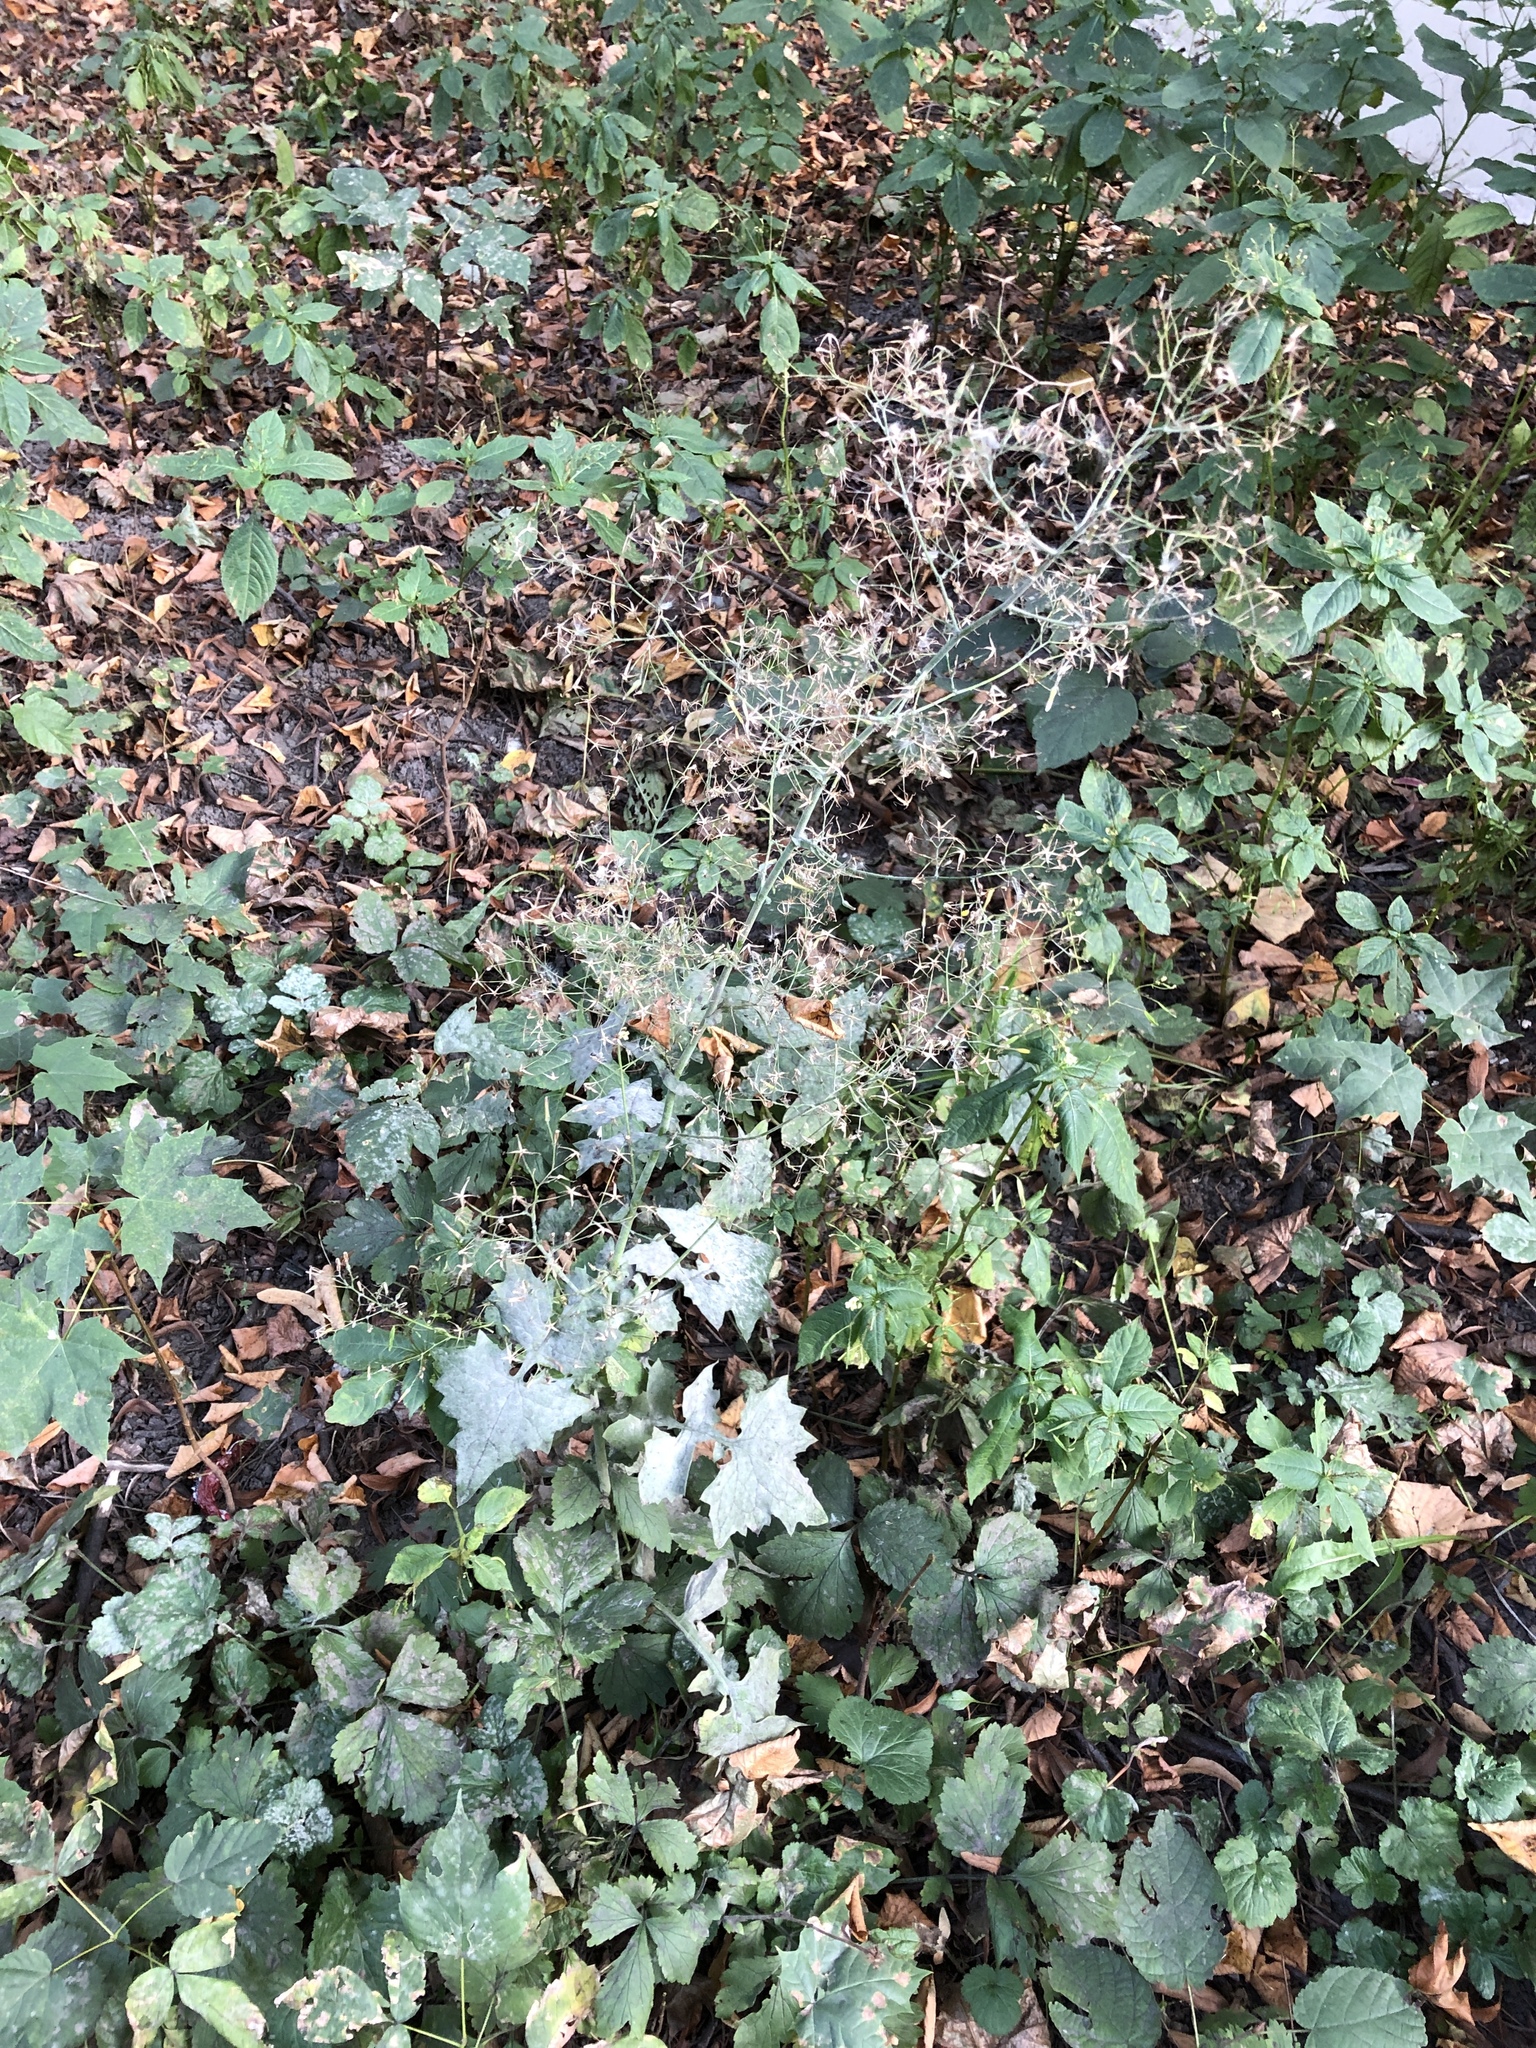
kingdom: Plantae
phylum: Tracheophyta
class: Magnoliopsida
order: Asterales
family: Asteraceae
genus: Mycelis
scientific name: Mycelis muralis
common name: Wall lettuce
